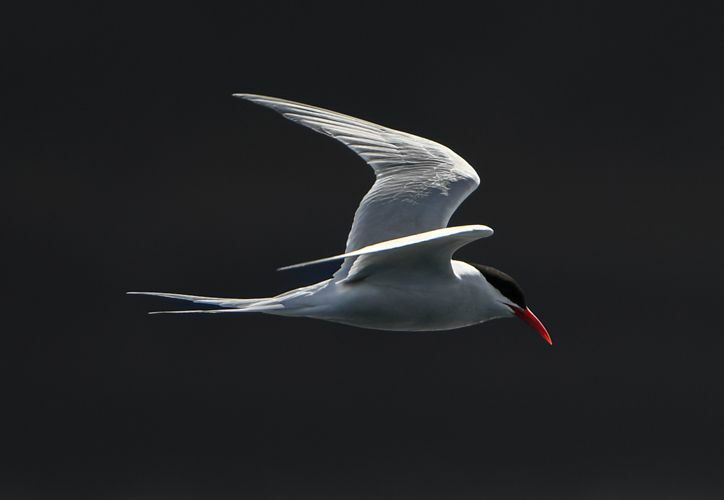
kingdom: Animalia
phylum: Chordata
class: Aves
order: Charadriiformes
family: Laridae
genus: Sterna
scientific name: Sterna hirundinacea
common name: South american tern
